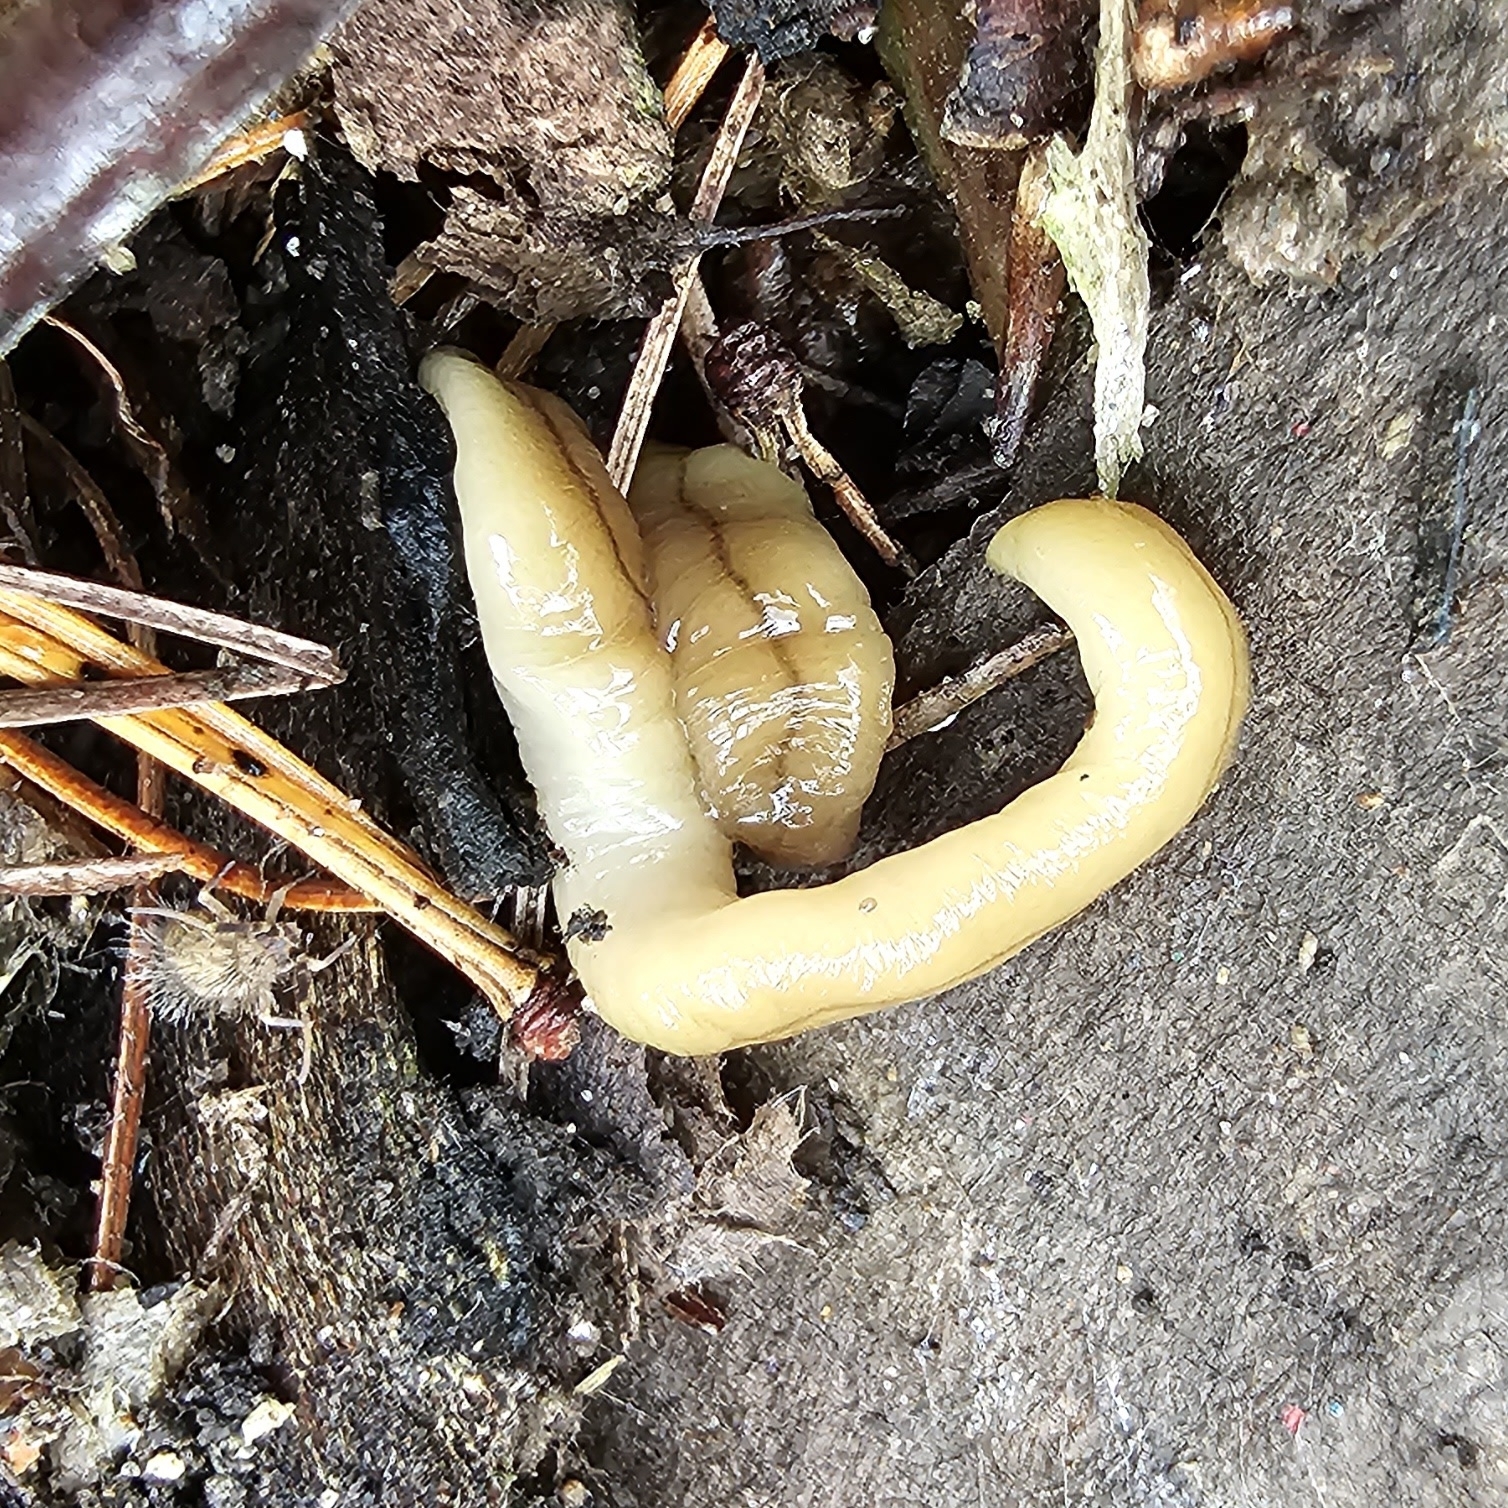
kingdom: Animalia
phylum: Platyhelminthes
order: Tricladida
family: Geoplanidae
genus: Bipalium
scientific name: Bipalium adventitium
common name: Land planarian
